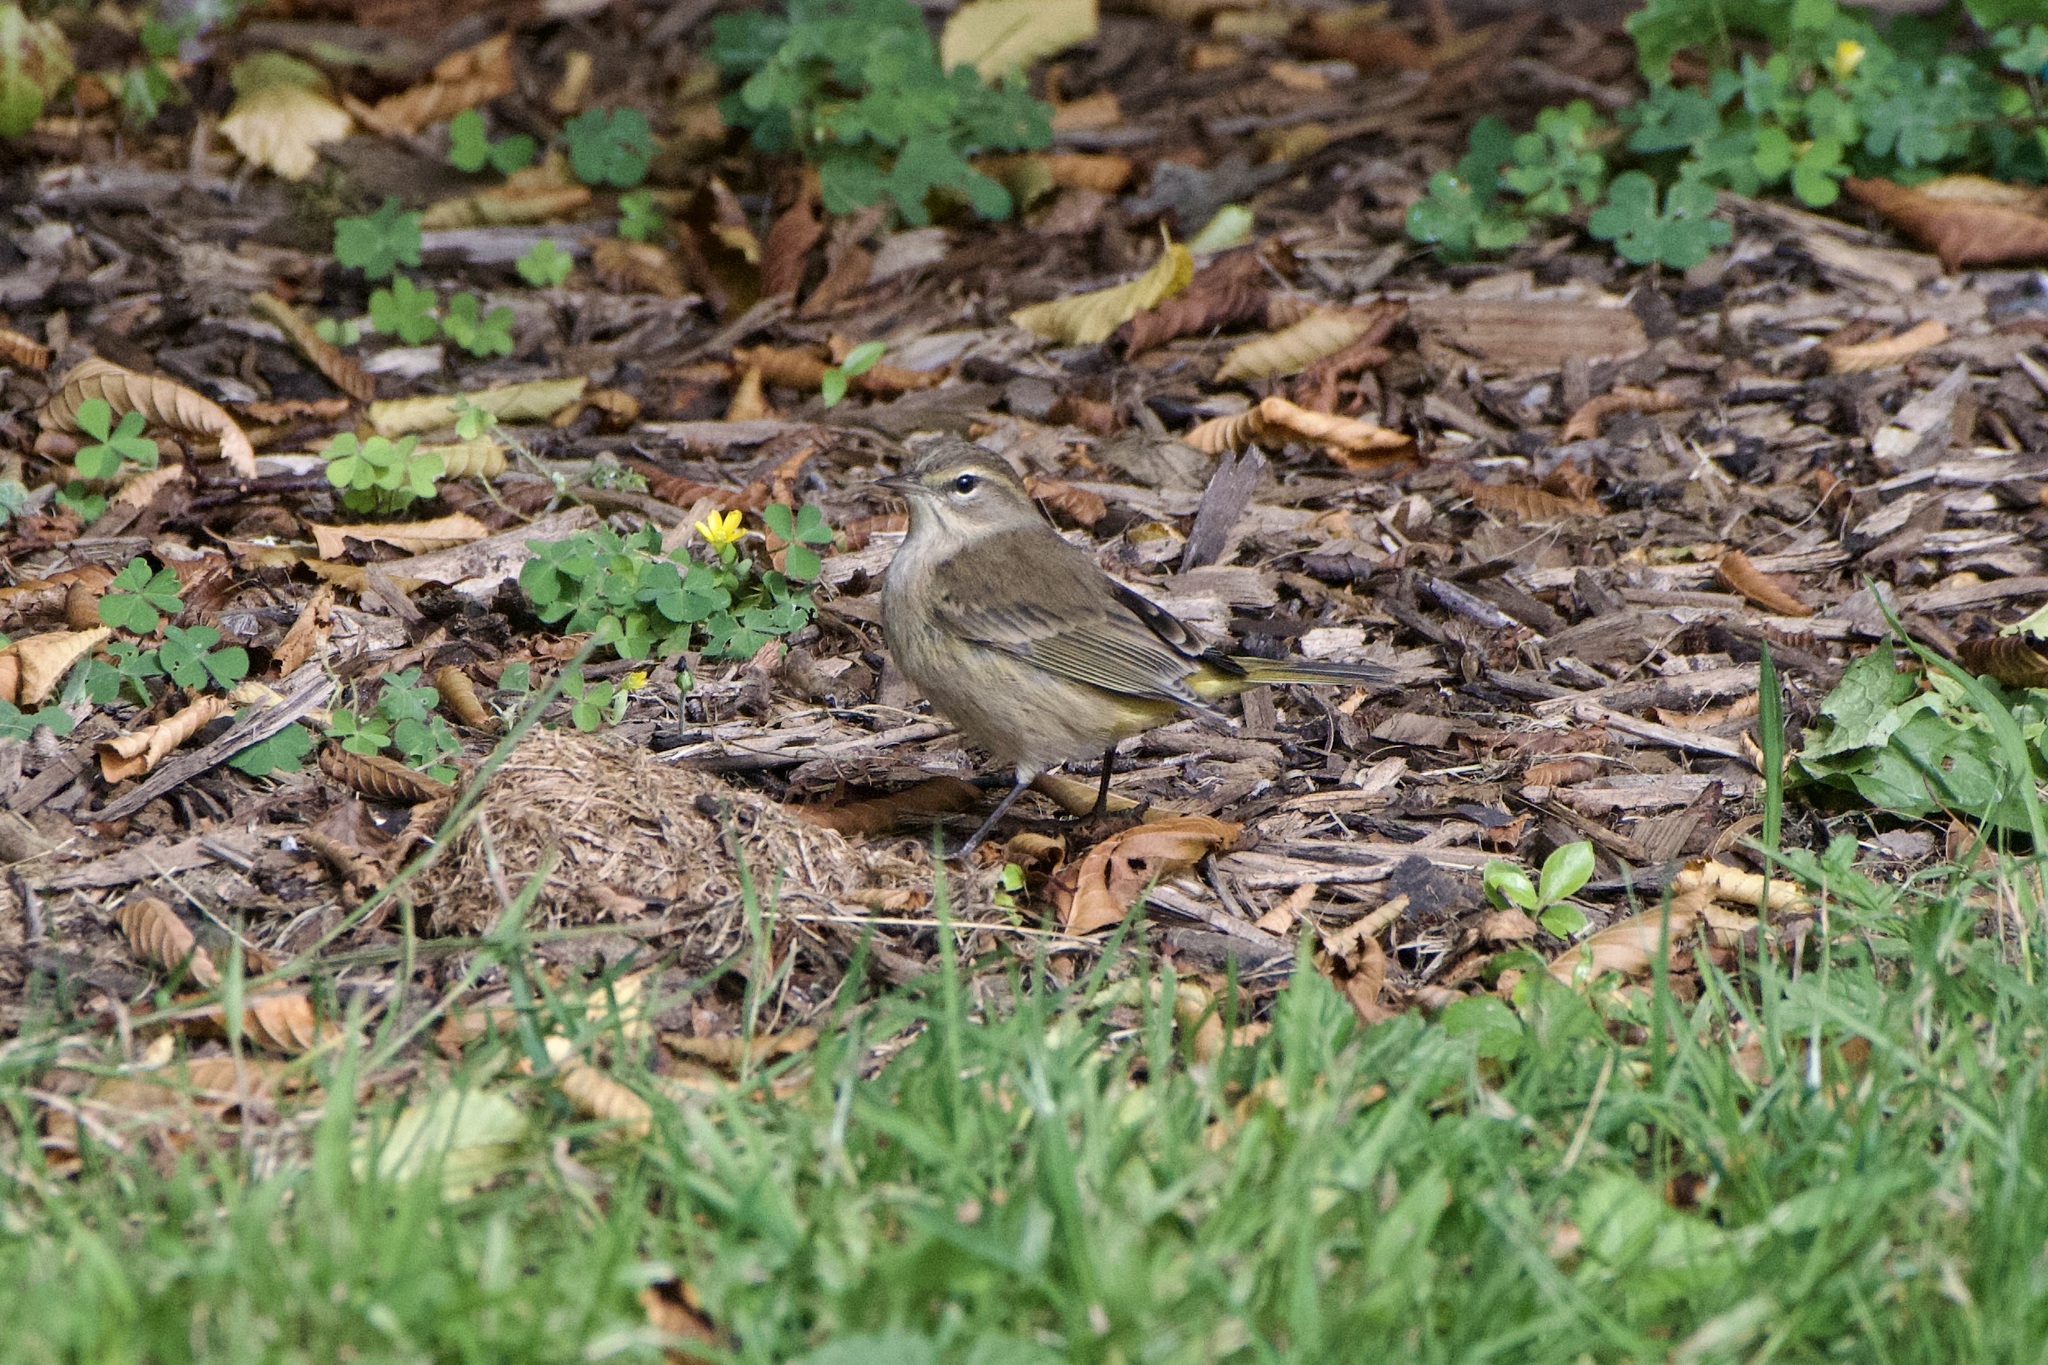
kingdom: Animalia
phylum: Chordata
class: Aves
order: Passeriformes
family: Parulidae
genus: Setophaga
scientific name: Setophaga palmarum
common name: Palm warbler
